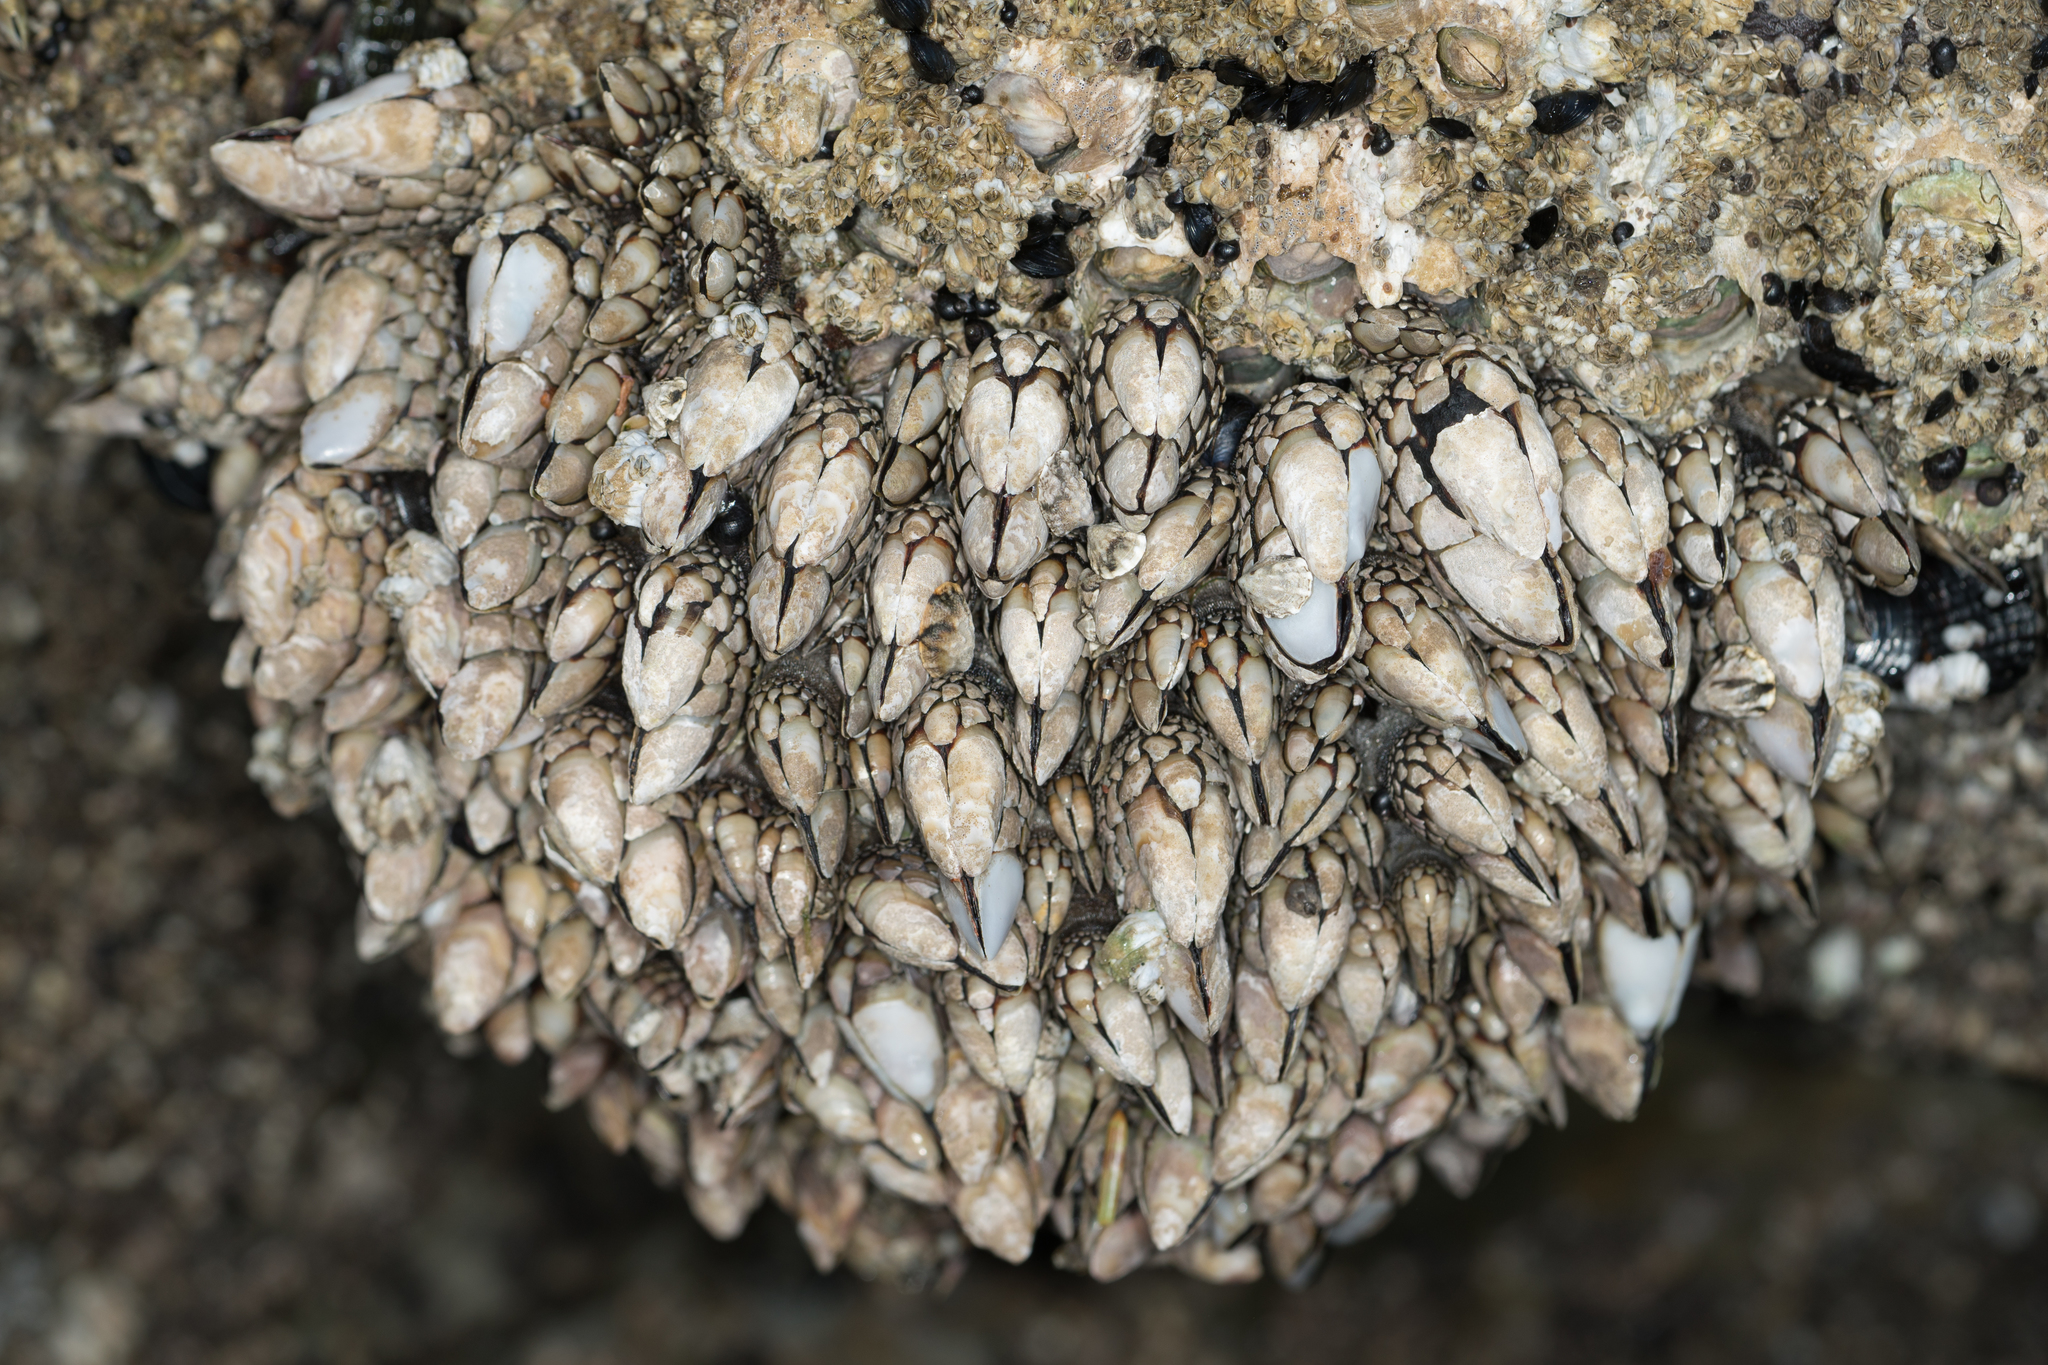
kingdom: Animalia
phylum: Arthropoda
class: Maxillopoda
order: Pedunculata
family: Pollicipedidae
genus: Pollicipes
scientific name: Pollicipes polymerus
